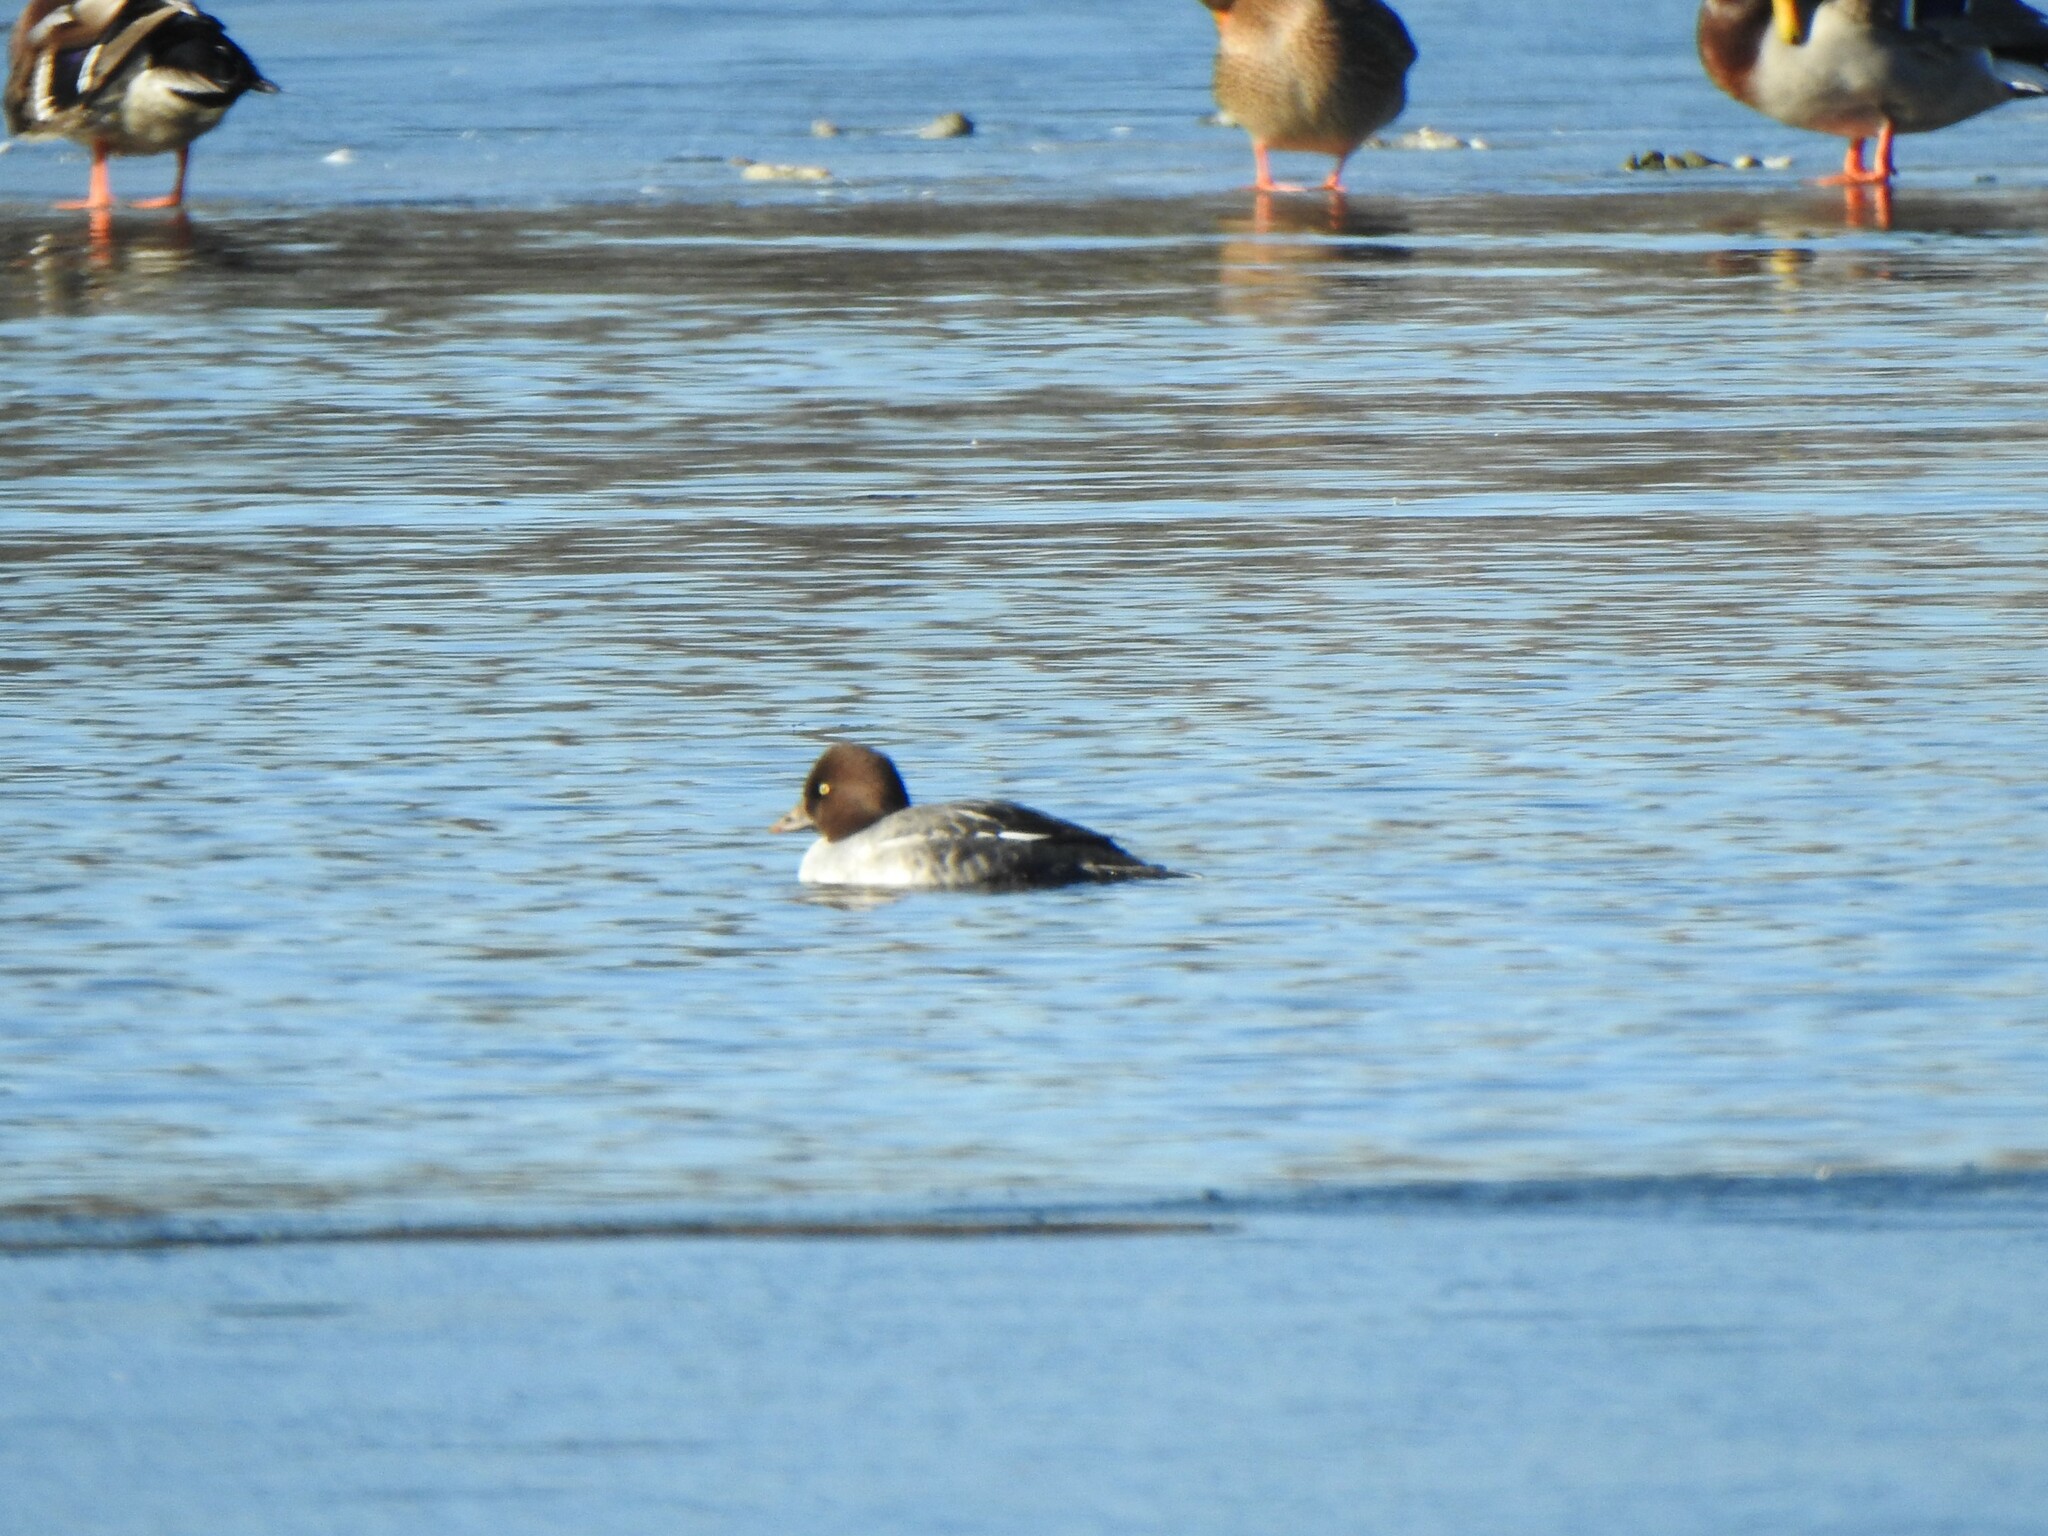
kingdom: Animalia
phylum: Chordata
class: Aves
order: Anseriformes
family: Anatidae
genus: Bucephala
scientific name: Bucephala clangula
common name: Common goldeneye
